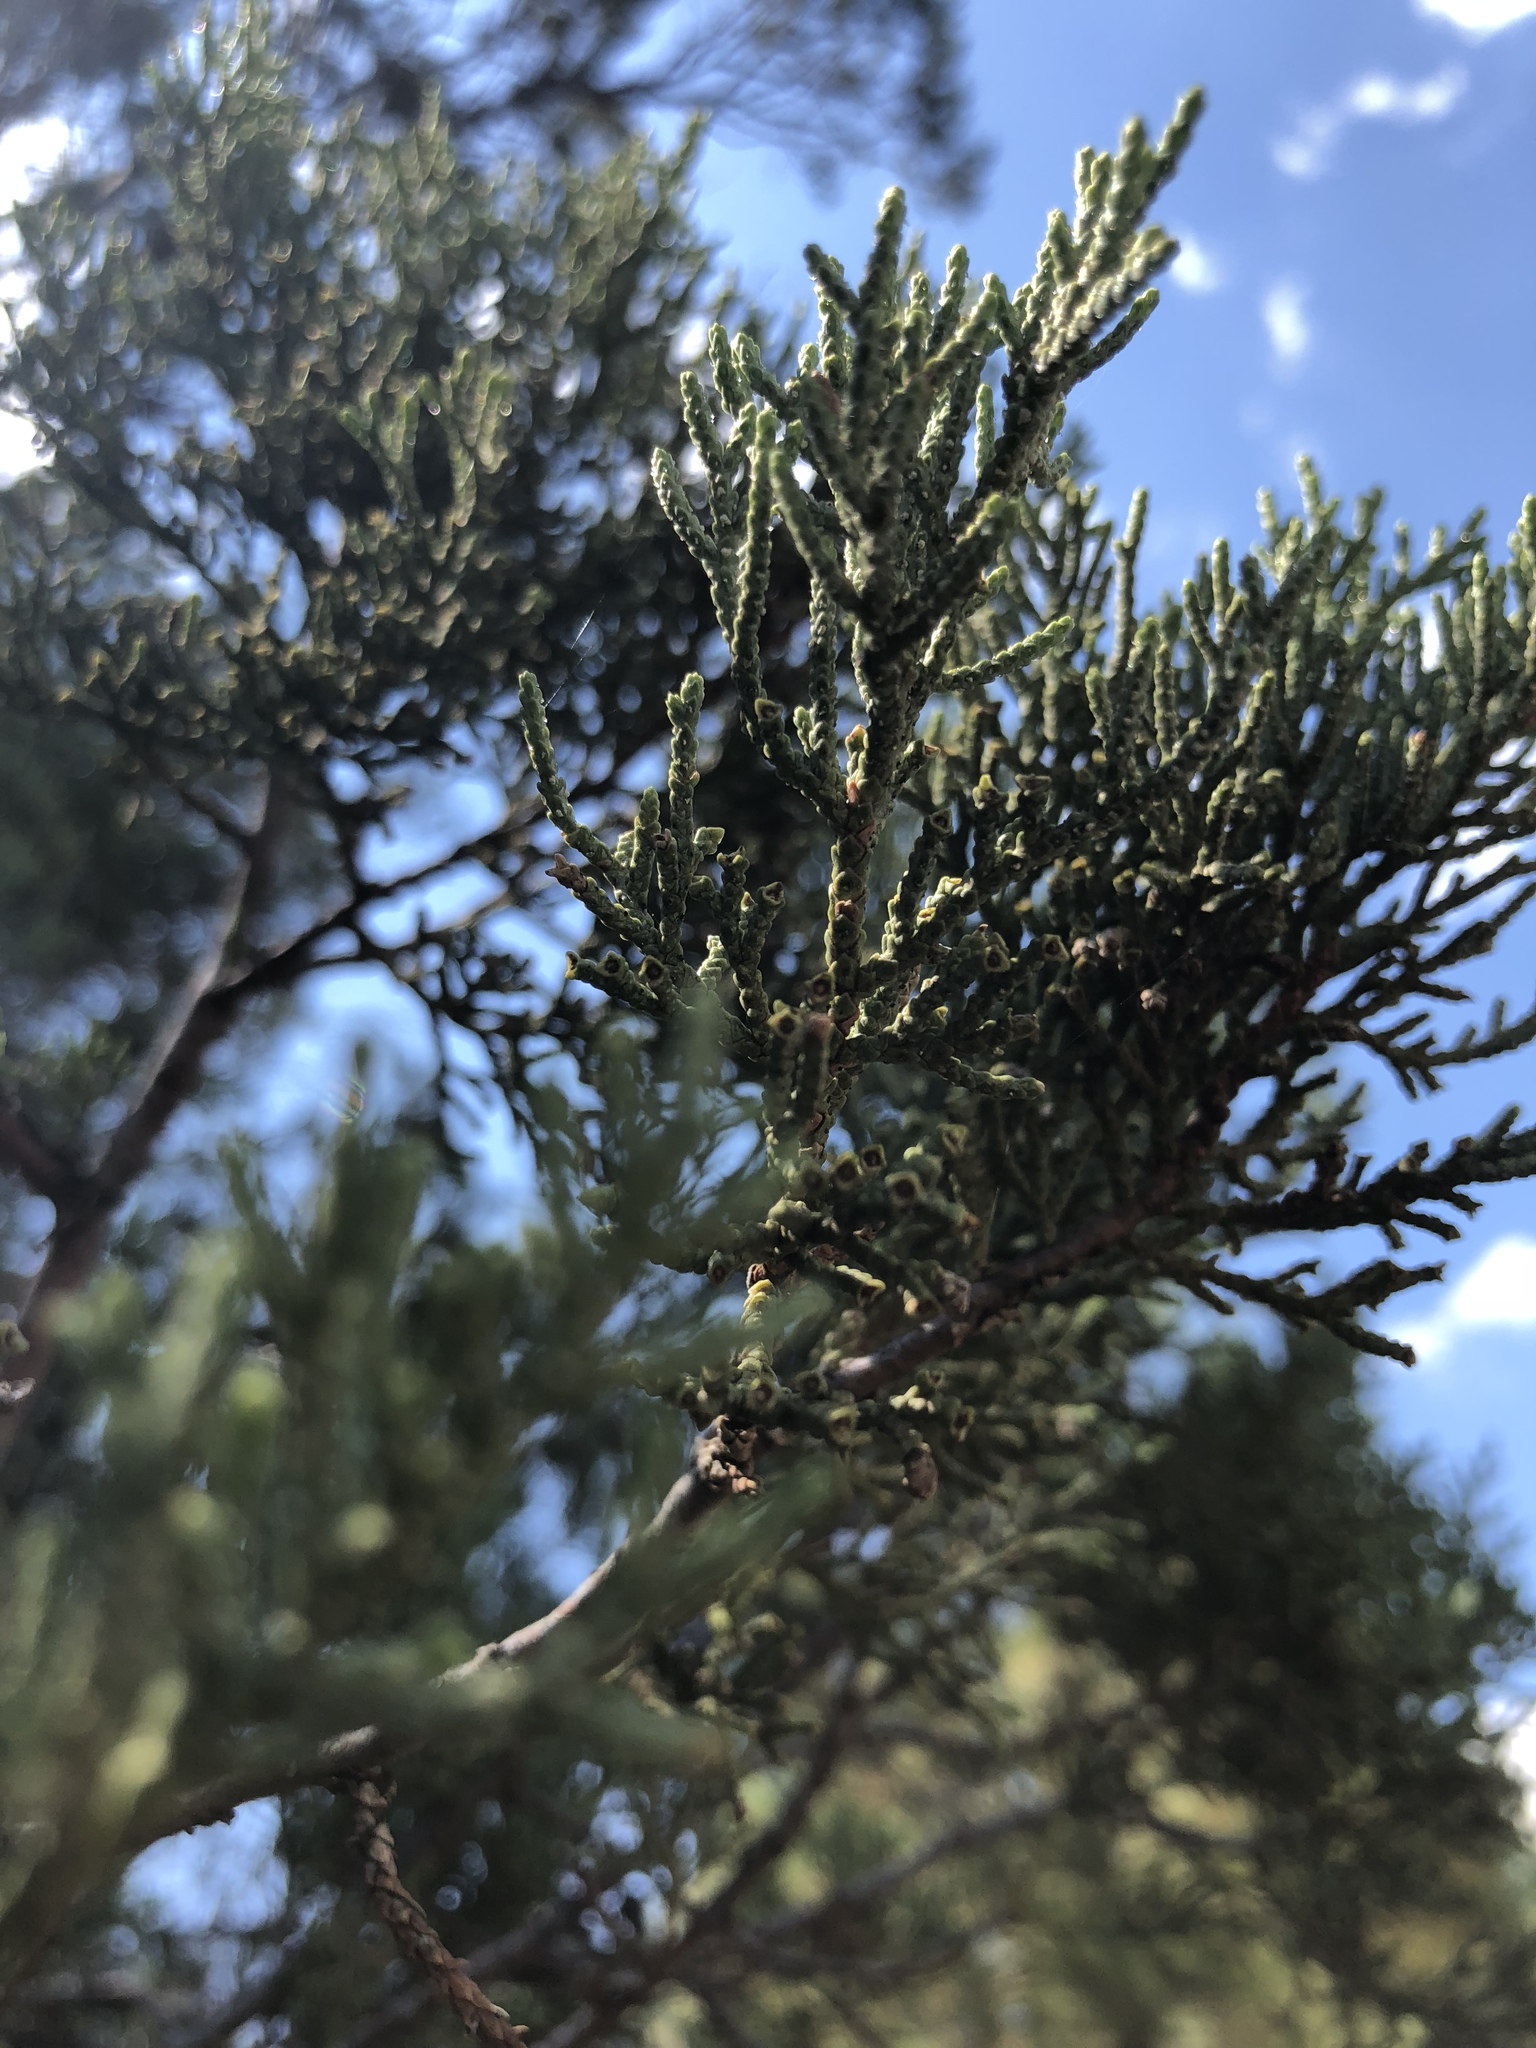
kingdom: Plantae
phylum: Tracheophyta
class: Pinopsida
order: Pinales
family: Cupressaceae
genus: Juniperus
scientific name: Juniperus deppeana
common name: Alligator juniper
